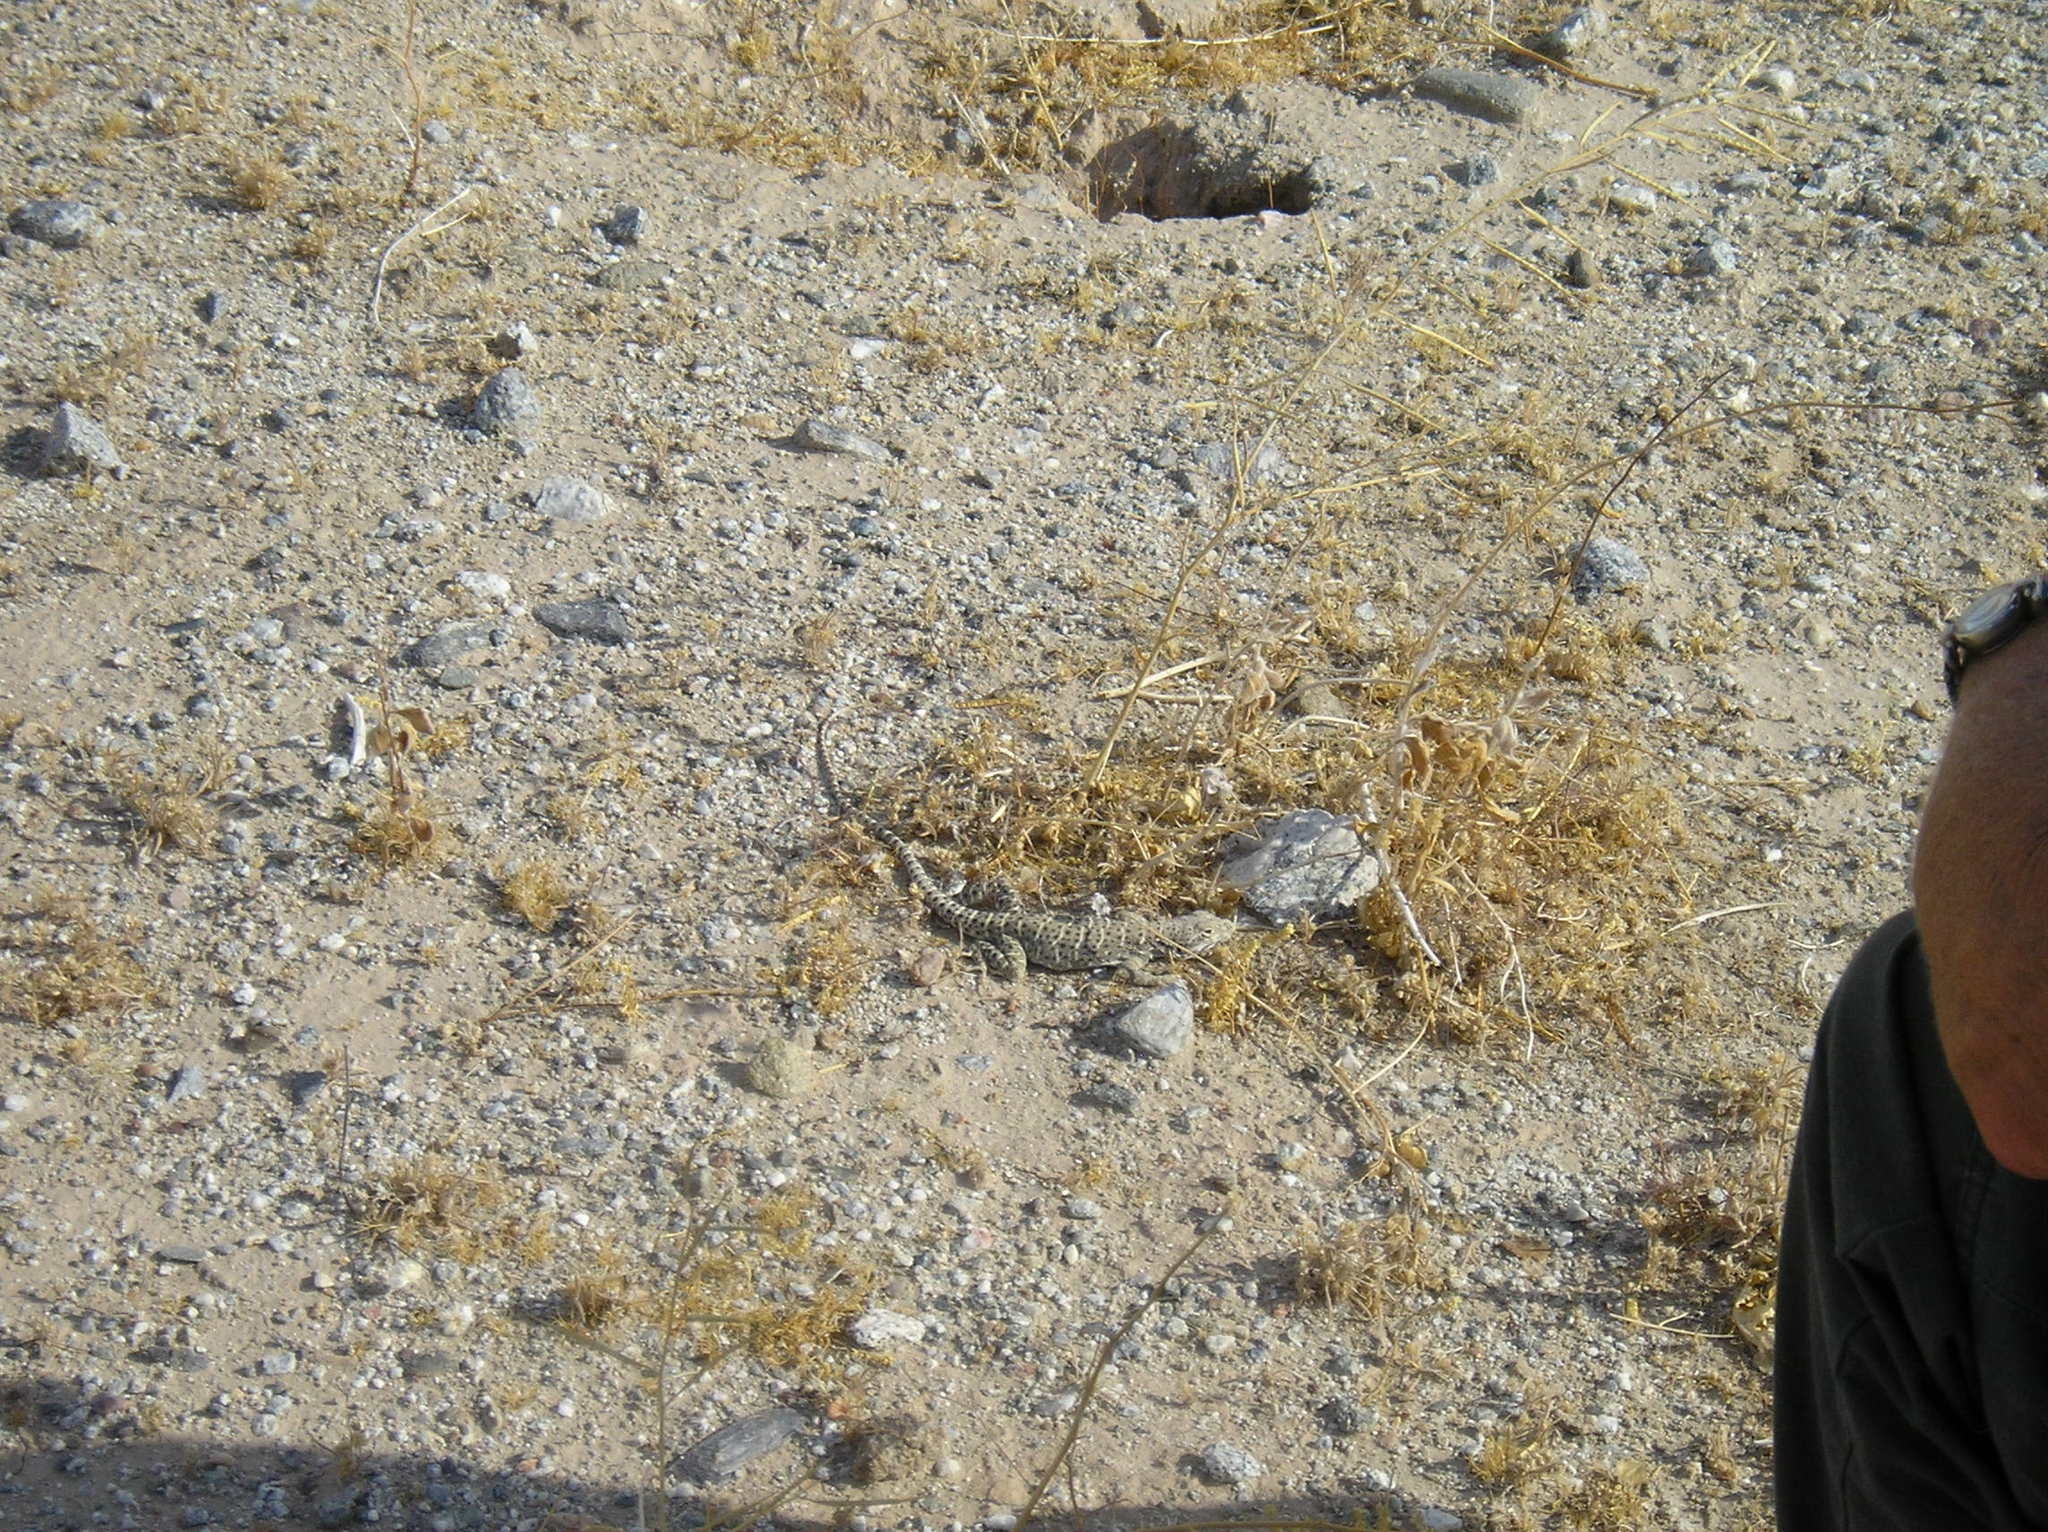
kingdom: Animalia
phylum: Chordata
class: Squamata
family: Crotaphytidae
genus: Gambelia
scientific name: Gambelia wislizenii
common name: Longnose leopard lizard
